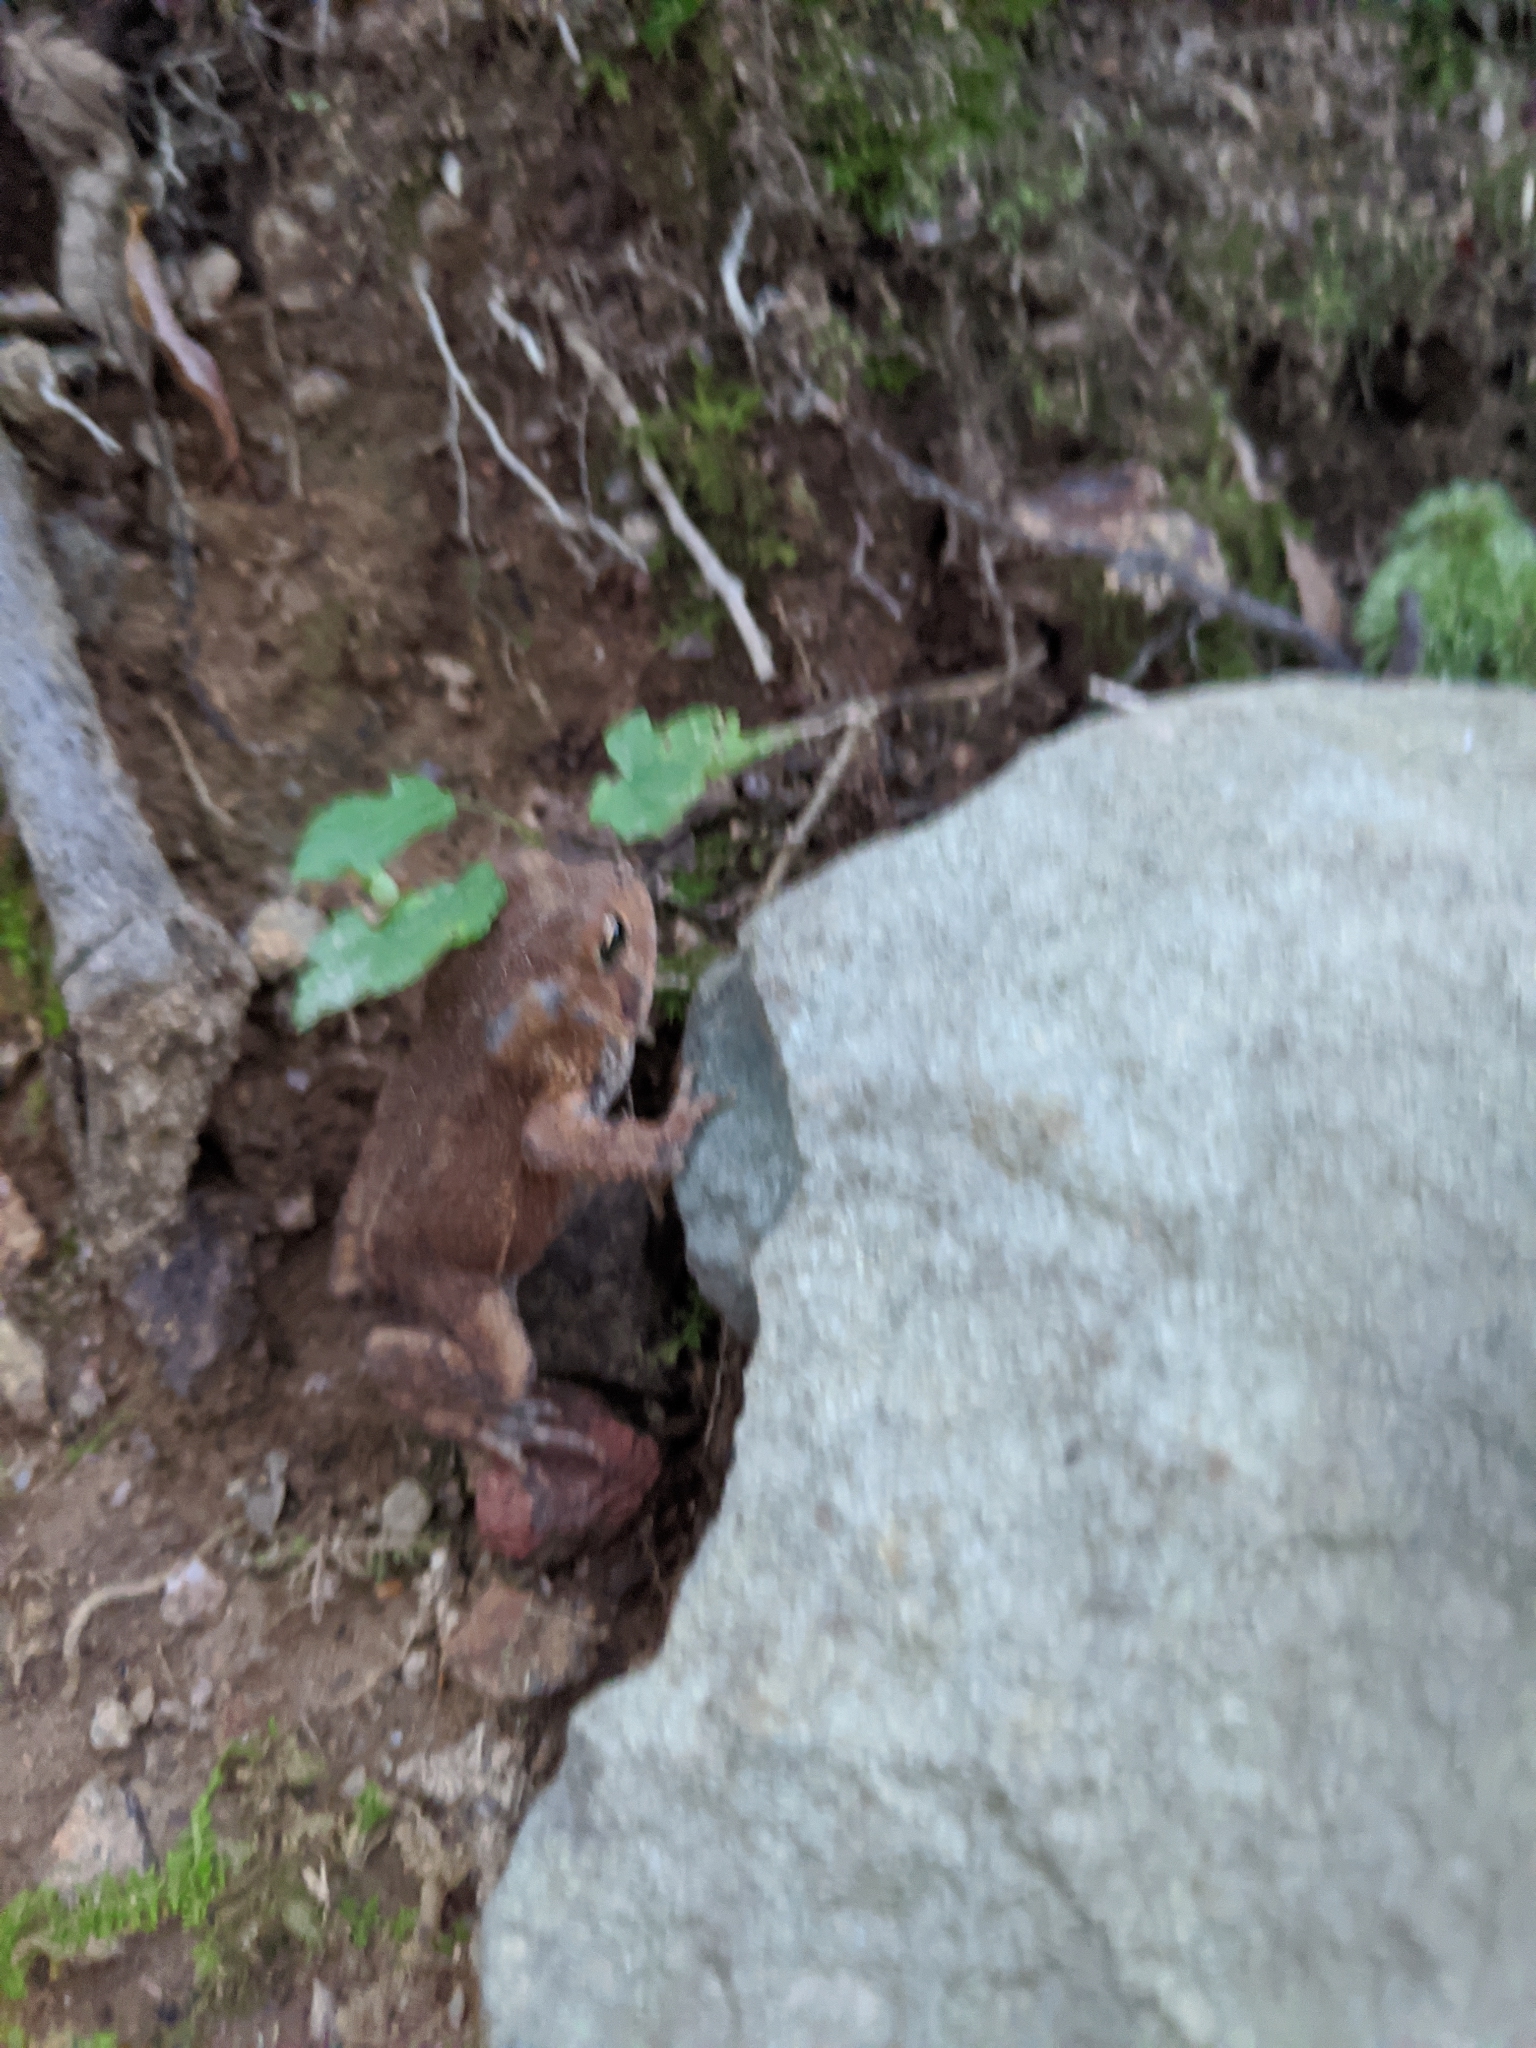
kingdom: Animalia
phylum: Chordata
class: Amphibia
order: Anura
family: Bufonidae
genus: Anaxyrus
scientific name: Anaxyrus americanus
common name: American toad
